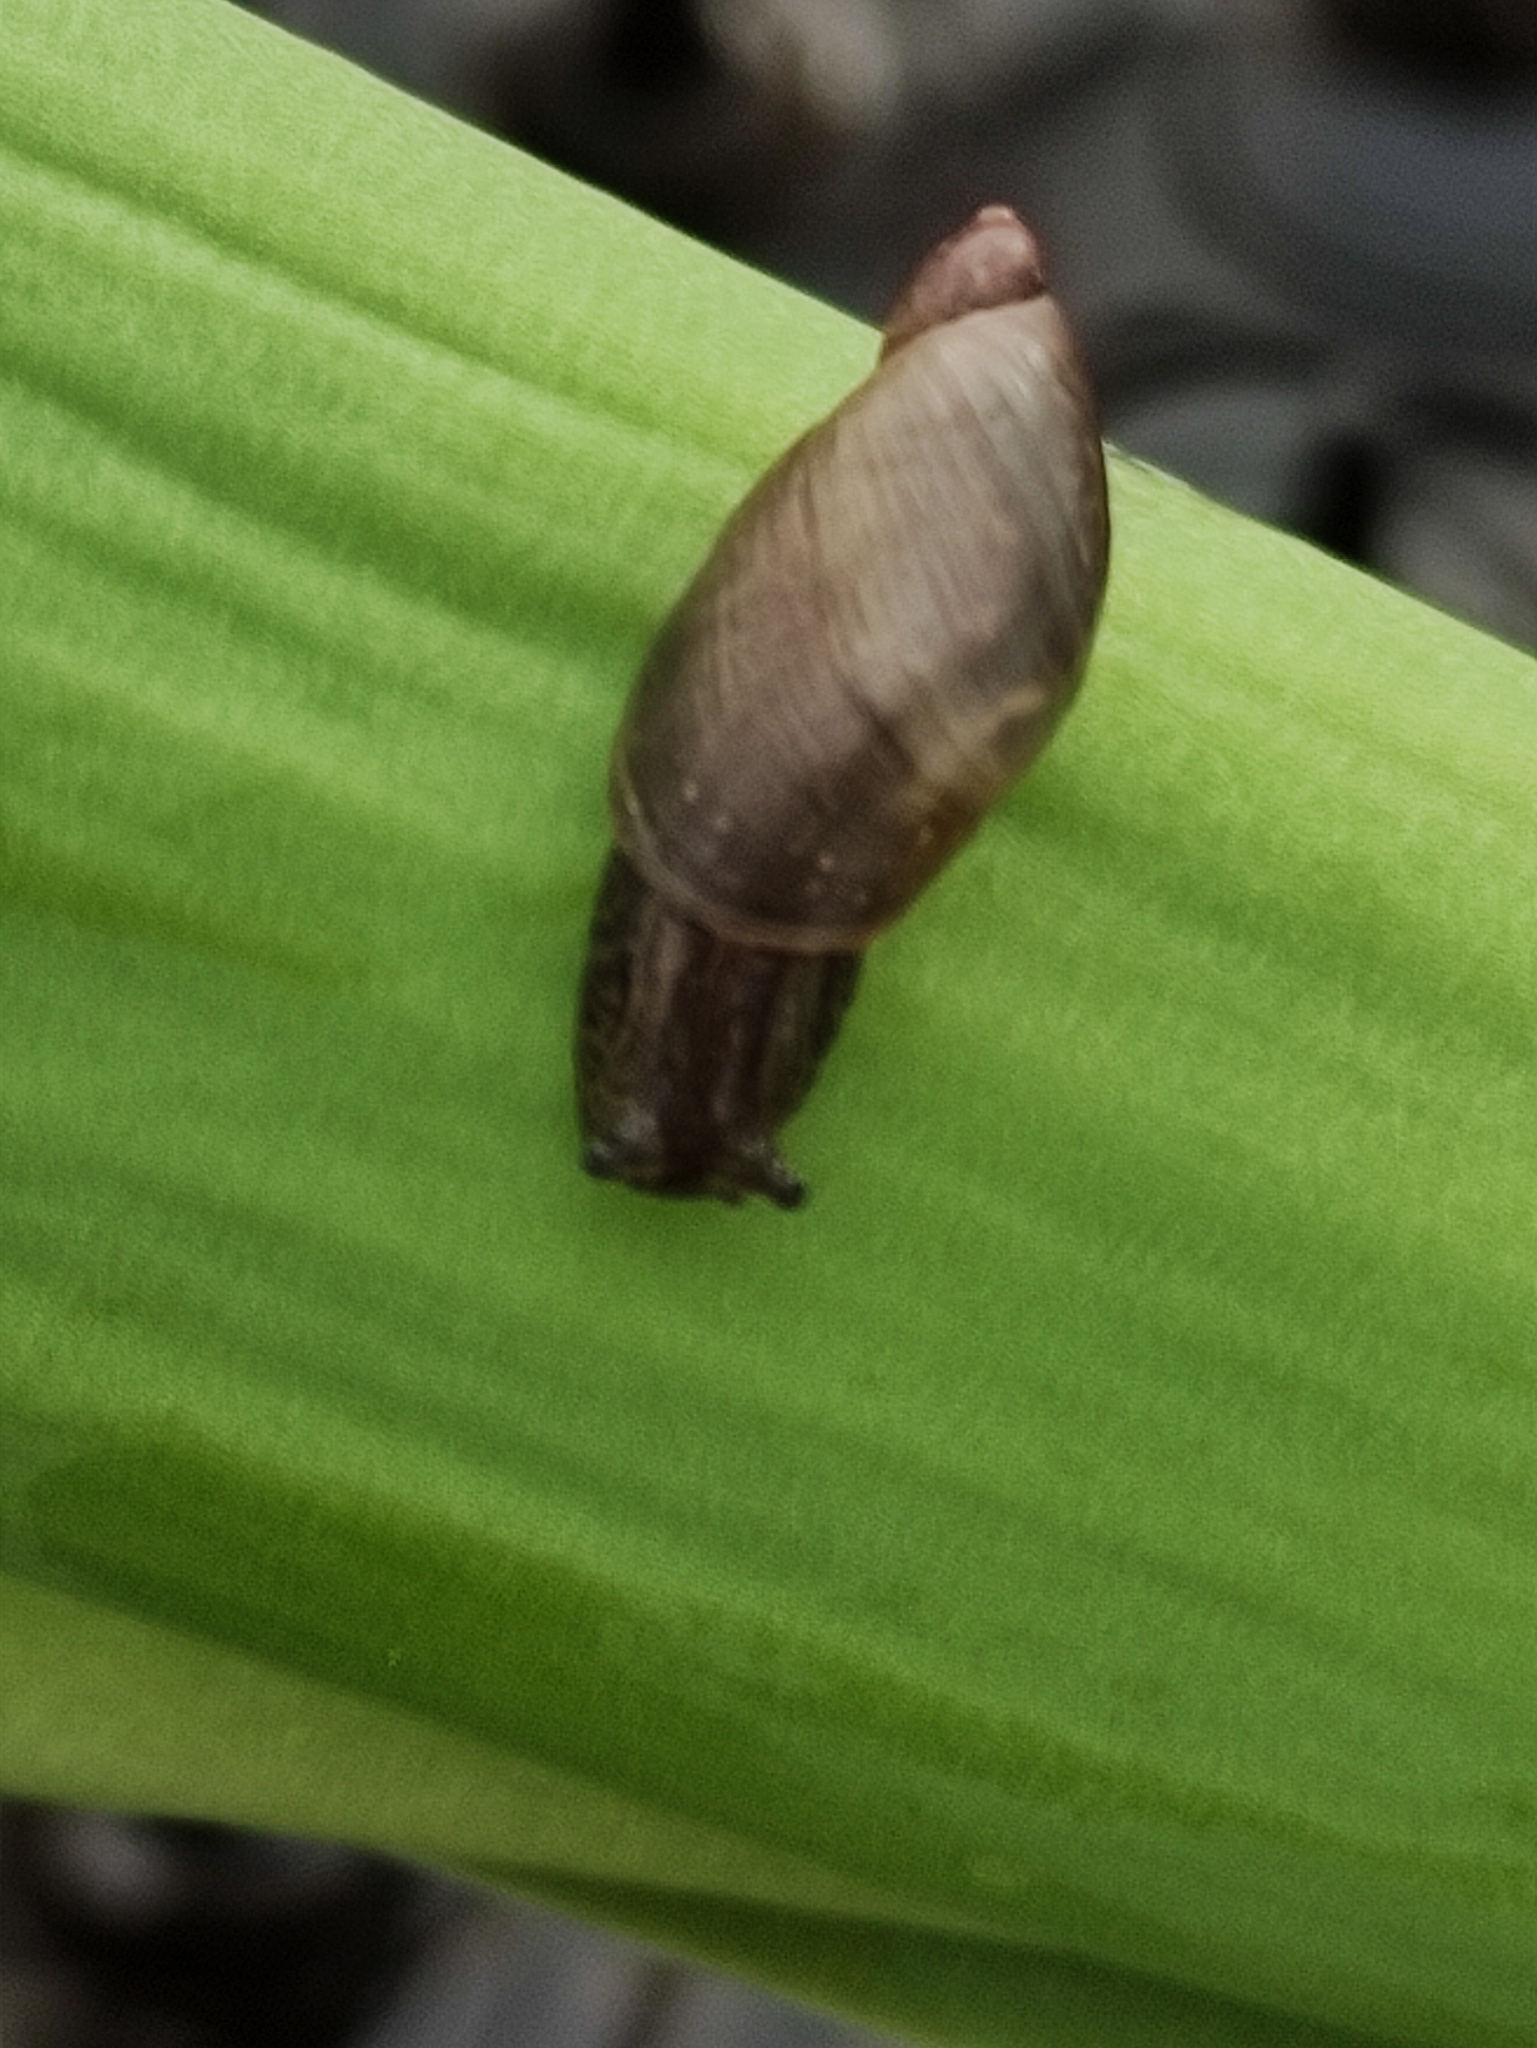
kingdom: Animalia
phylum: Mollusca
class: Gastropoda
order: Stylommatophora
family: Succineidae
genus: Succinea
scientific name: Succinea putris
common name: European ambersnail
